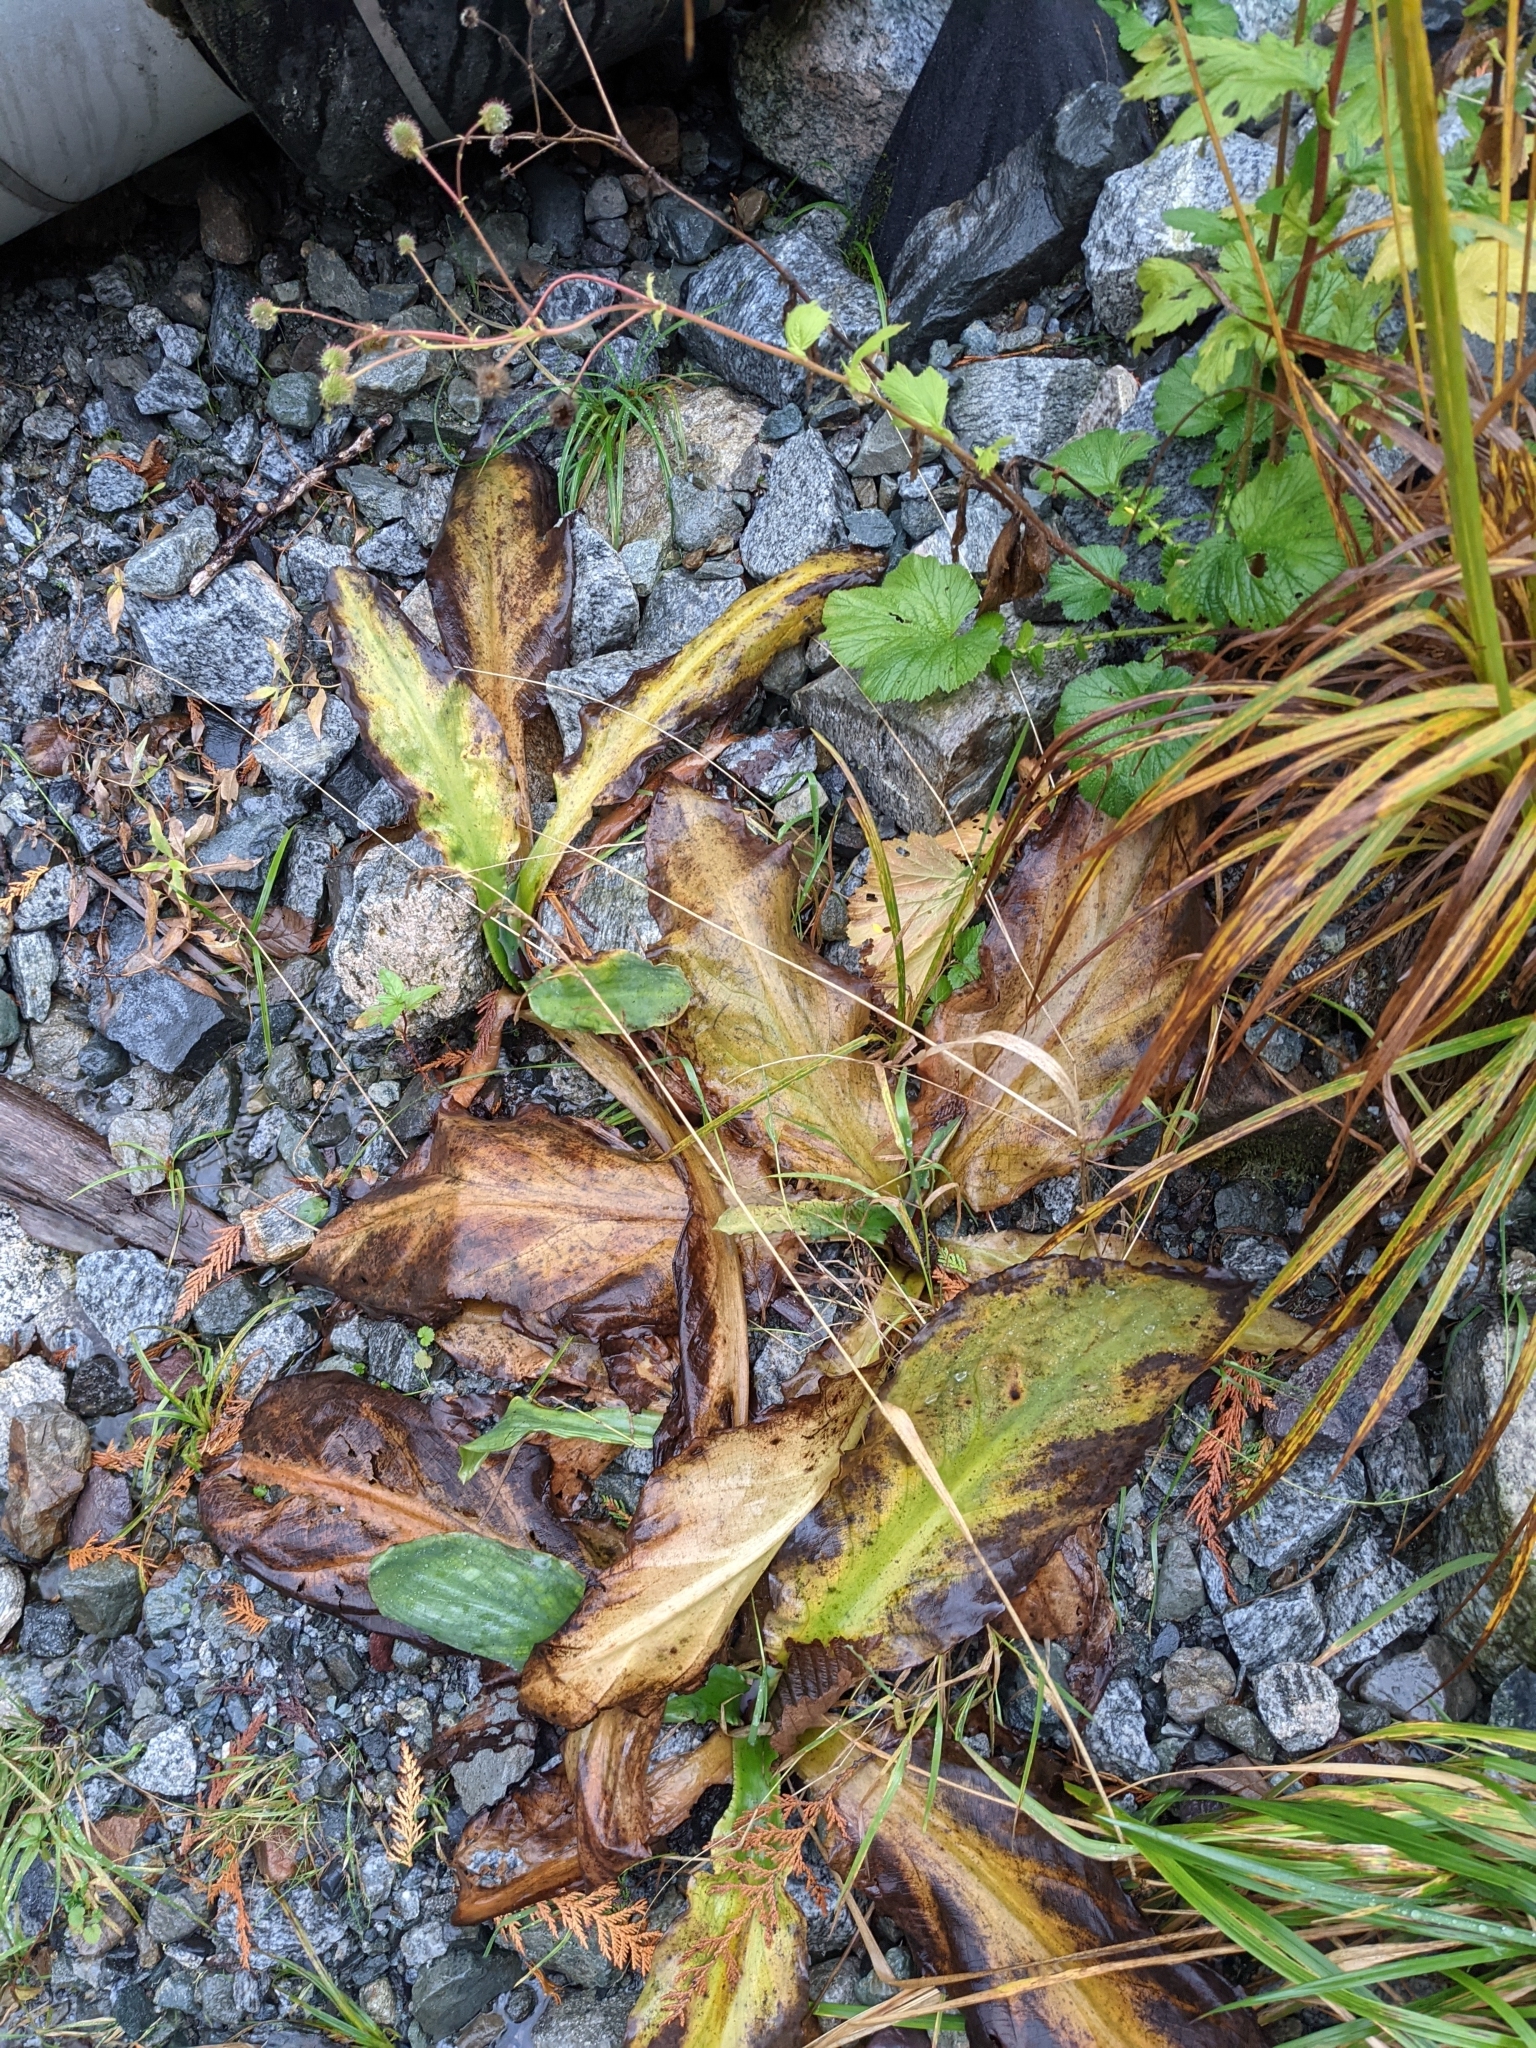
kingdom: Plantae
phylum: Tracheophyta
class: Liliopsida
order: Alismatales
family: Araceae
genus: Lysichiton
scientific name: Lysichiton americanus
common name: American skunk cabbage
